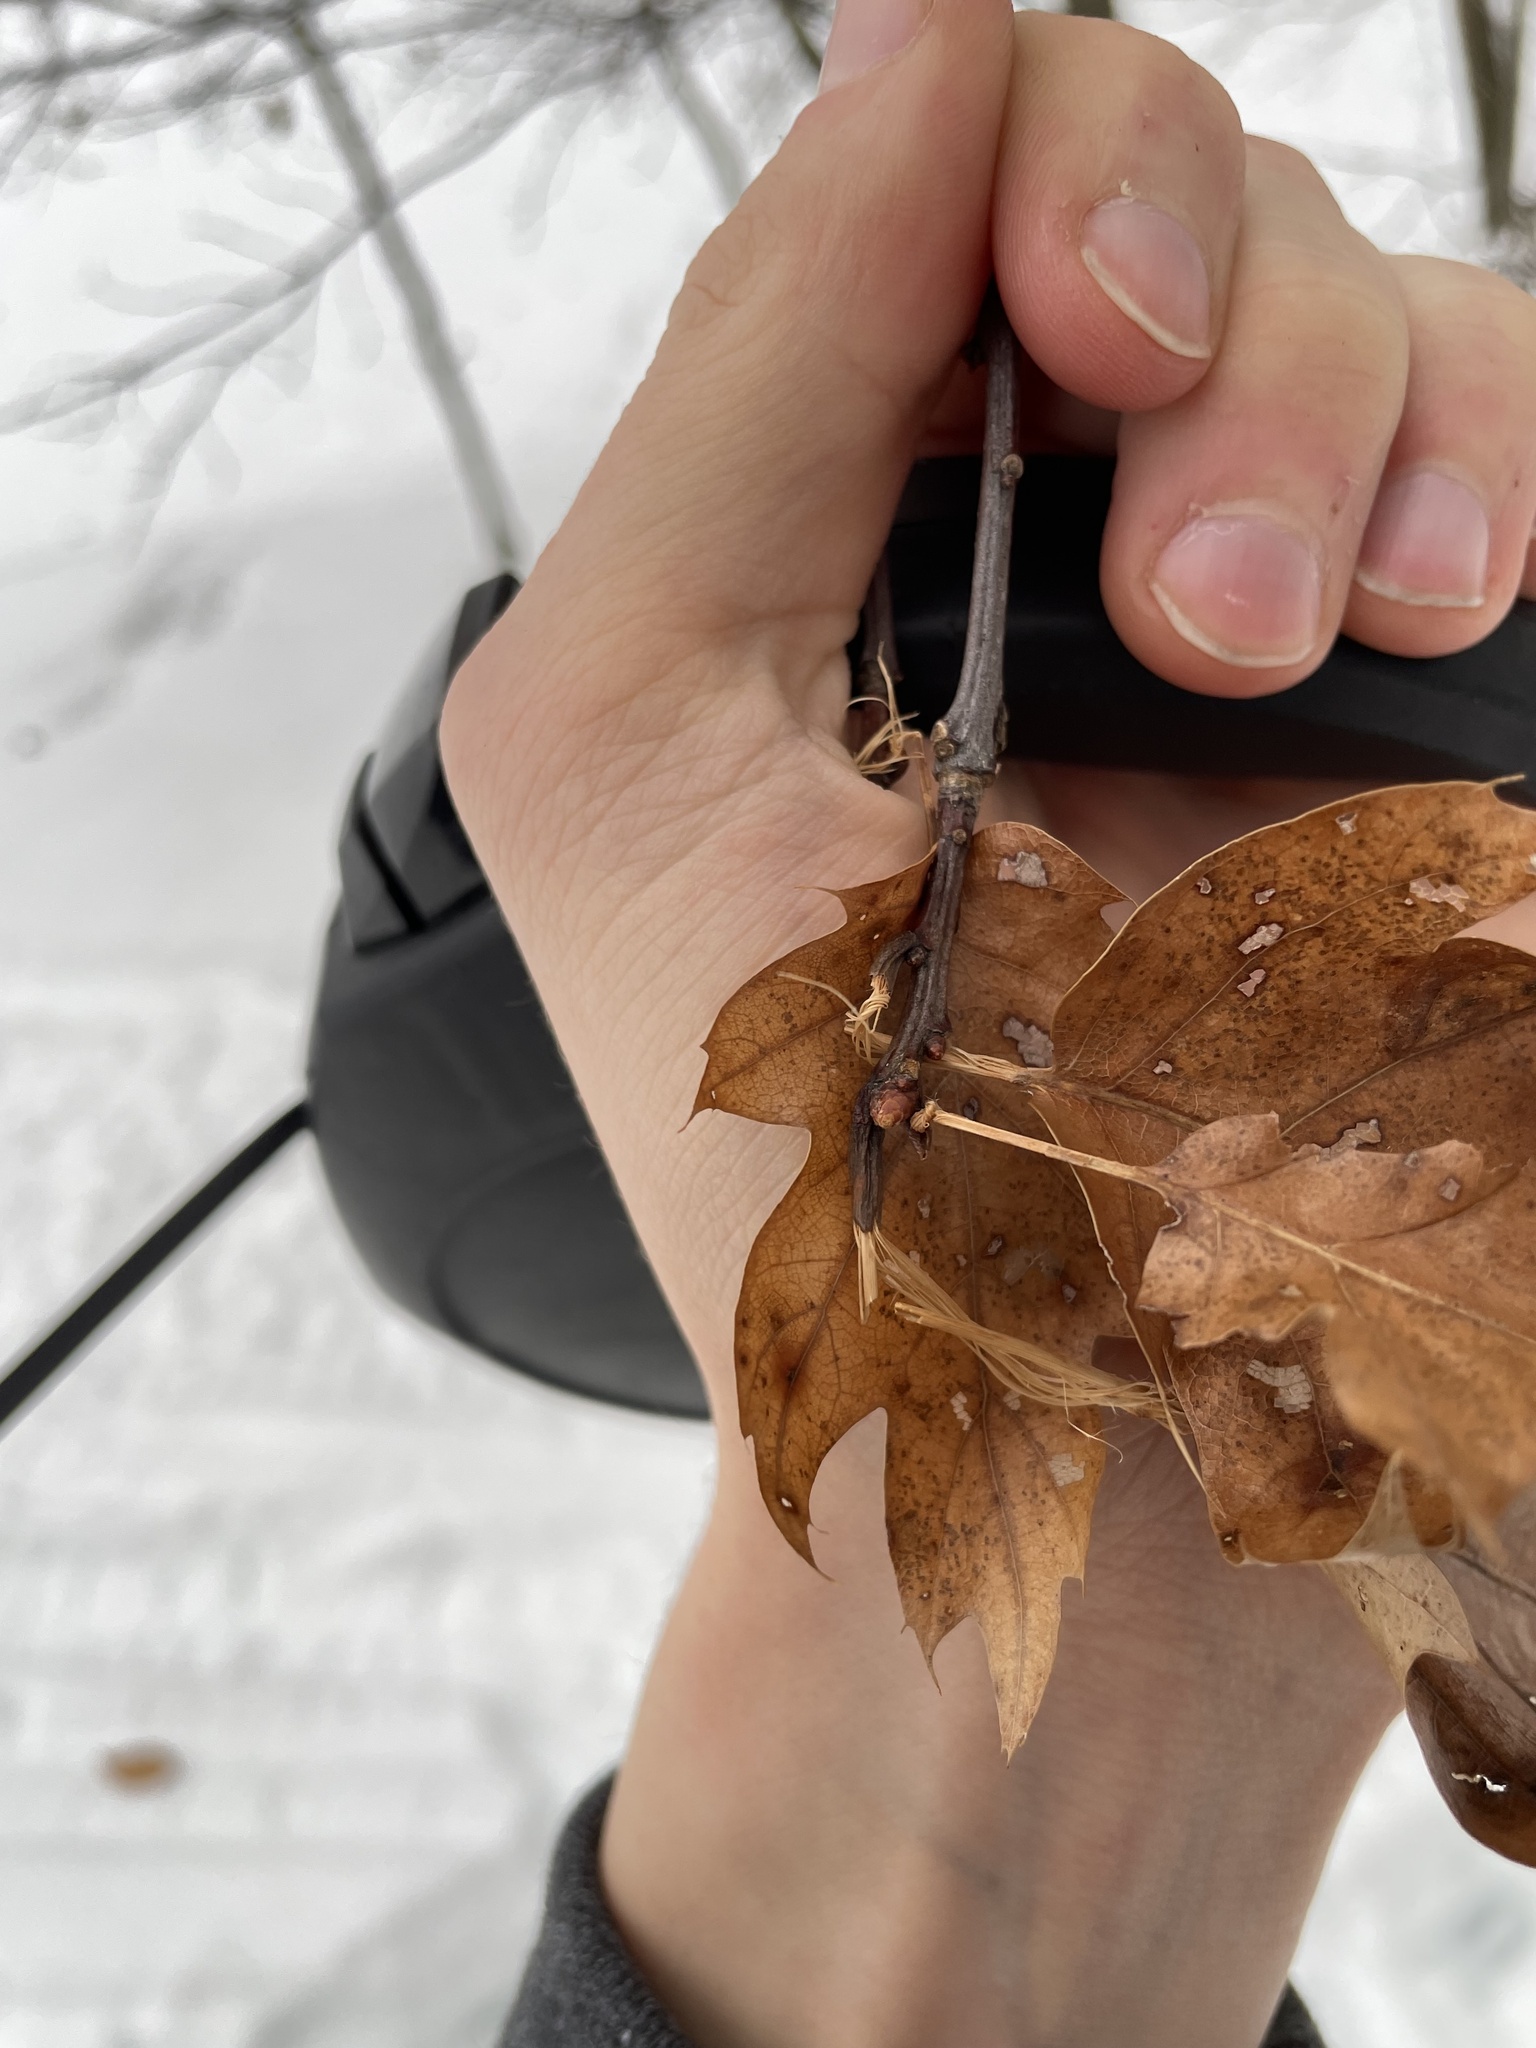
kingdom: Plantae
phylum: Tracheophyta
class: Magnoliopsida
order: Fagales
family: Fagaceae
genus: Quercus
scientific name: Quercus rubra
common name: Red oak
